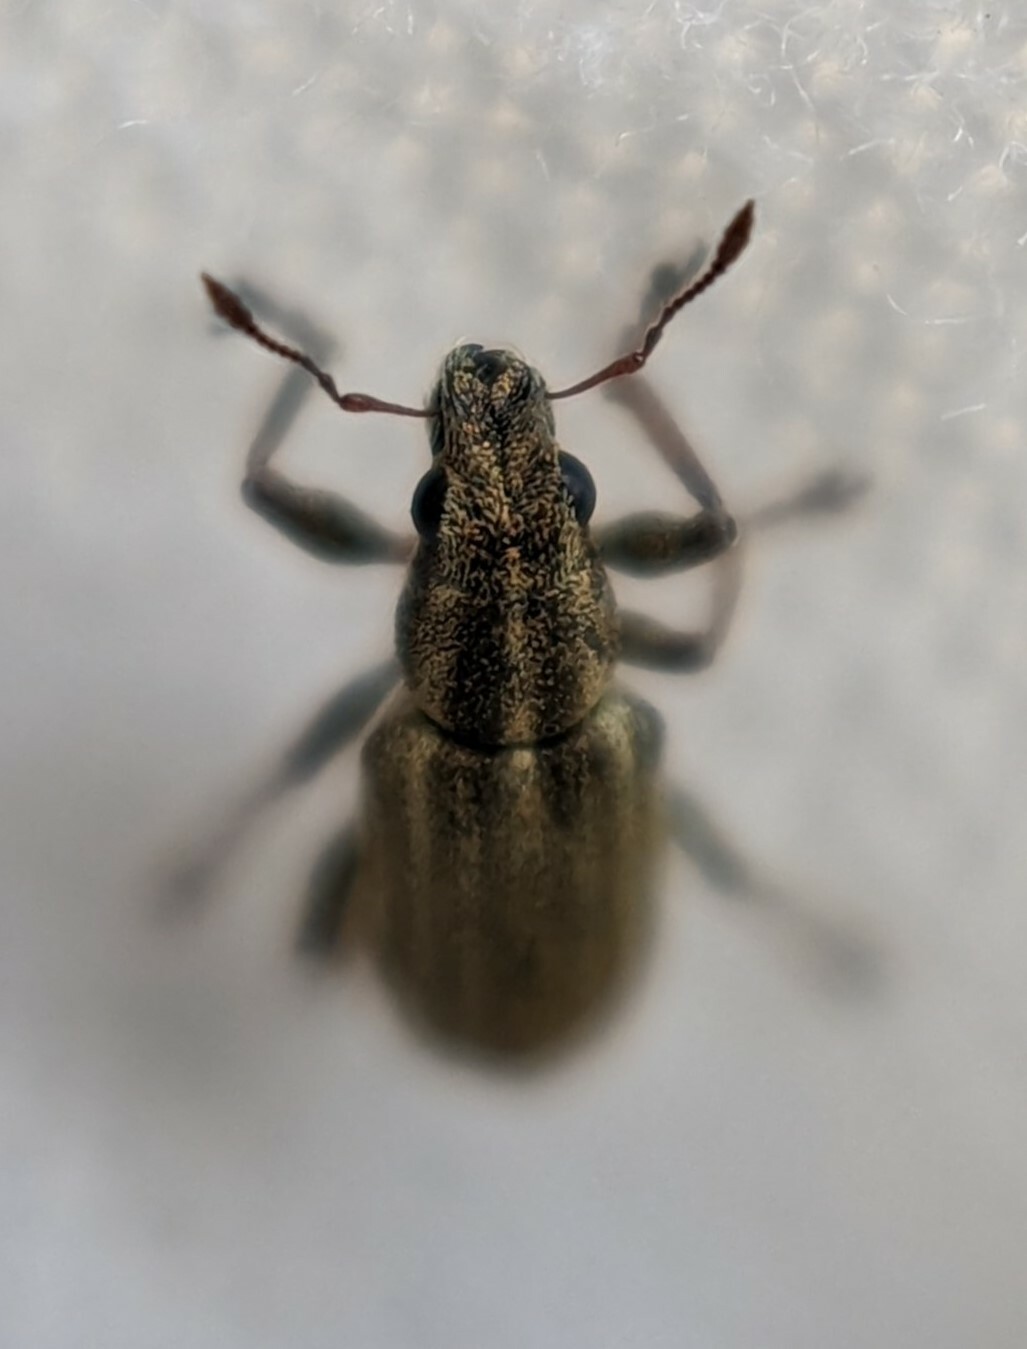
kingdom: Animalia
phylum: Arthropoda
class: Insecta
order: Coleoptera
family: Curculionidae
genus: Sitona
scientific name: Sitona lineatus
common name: Weevil
